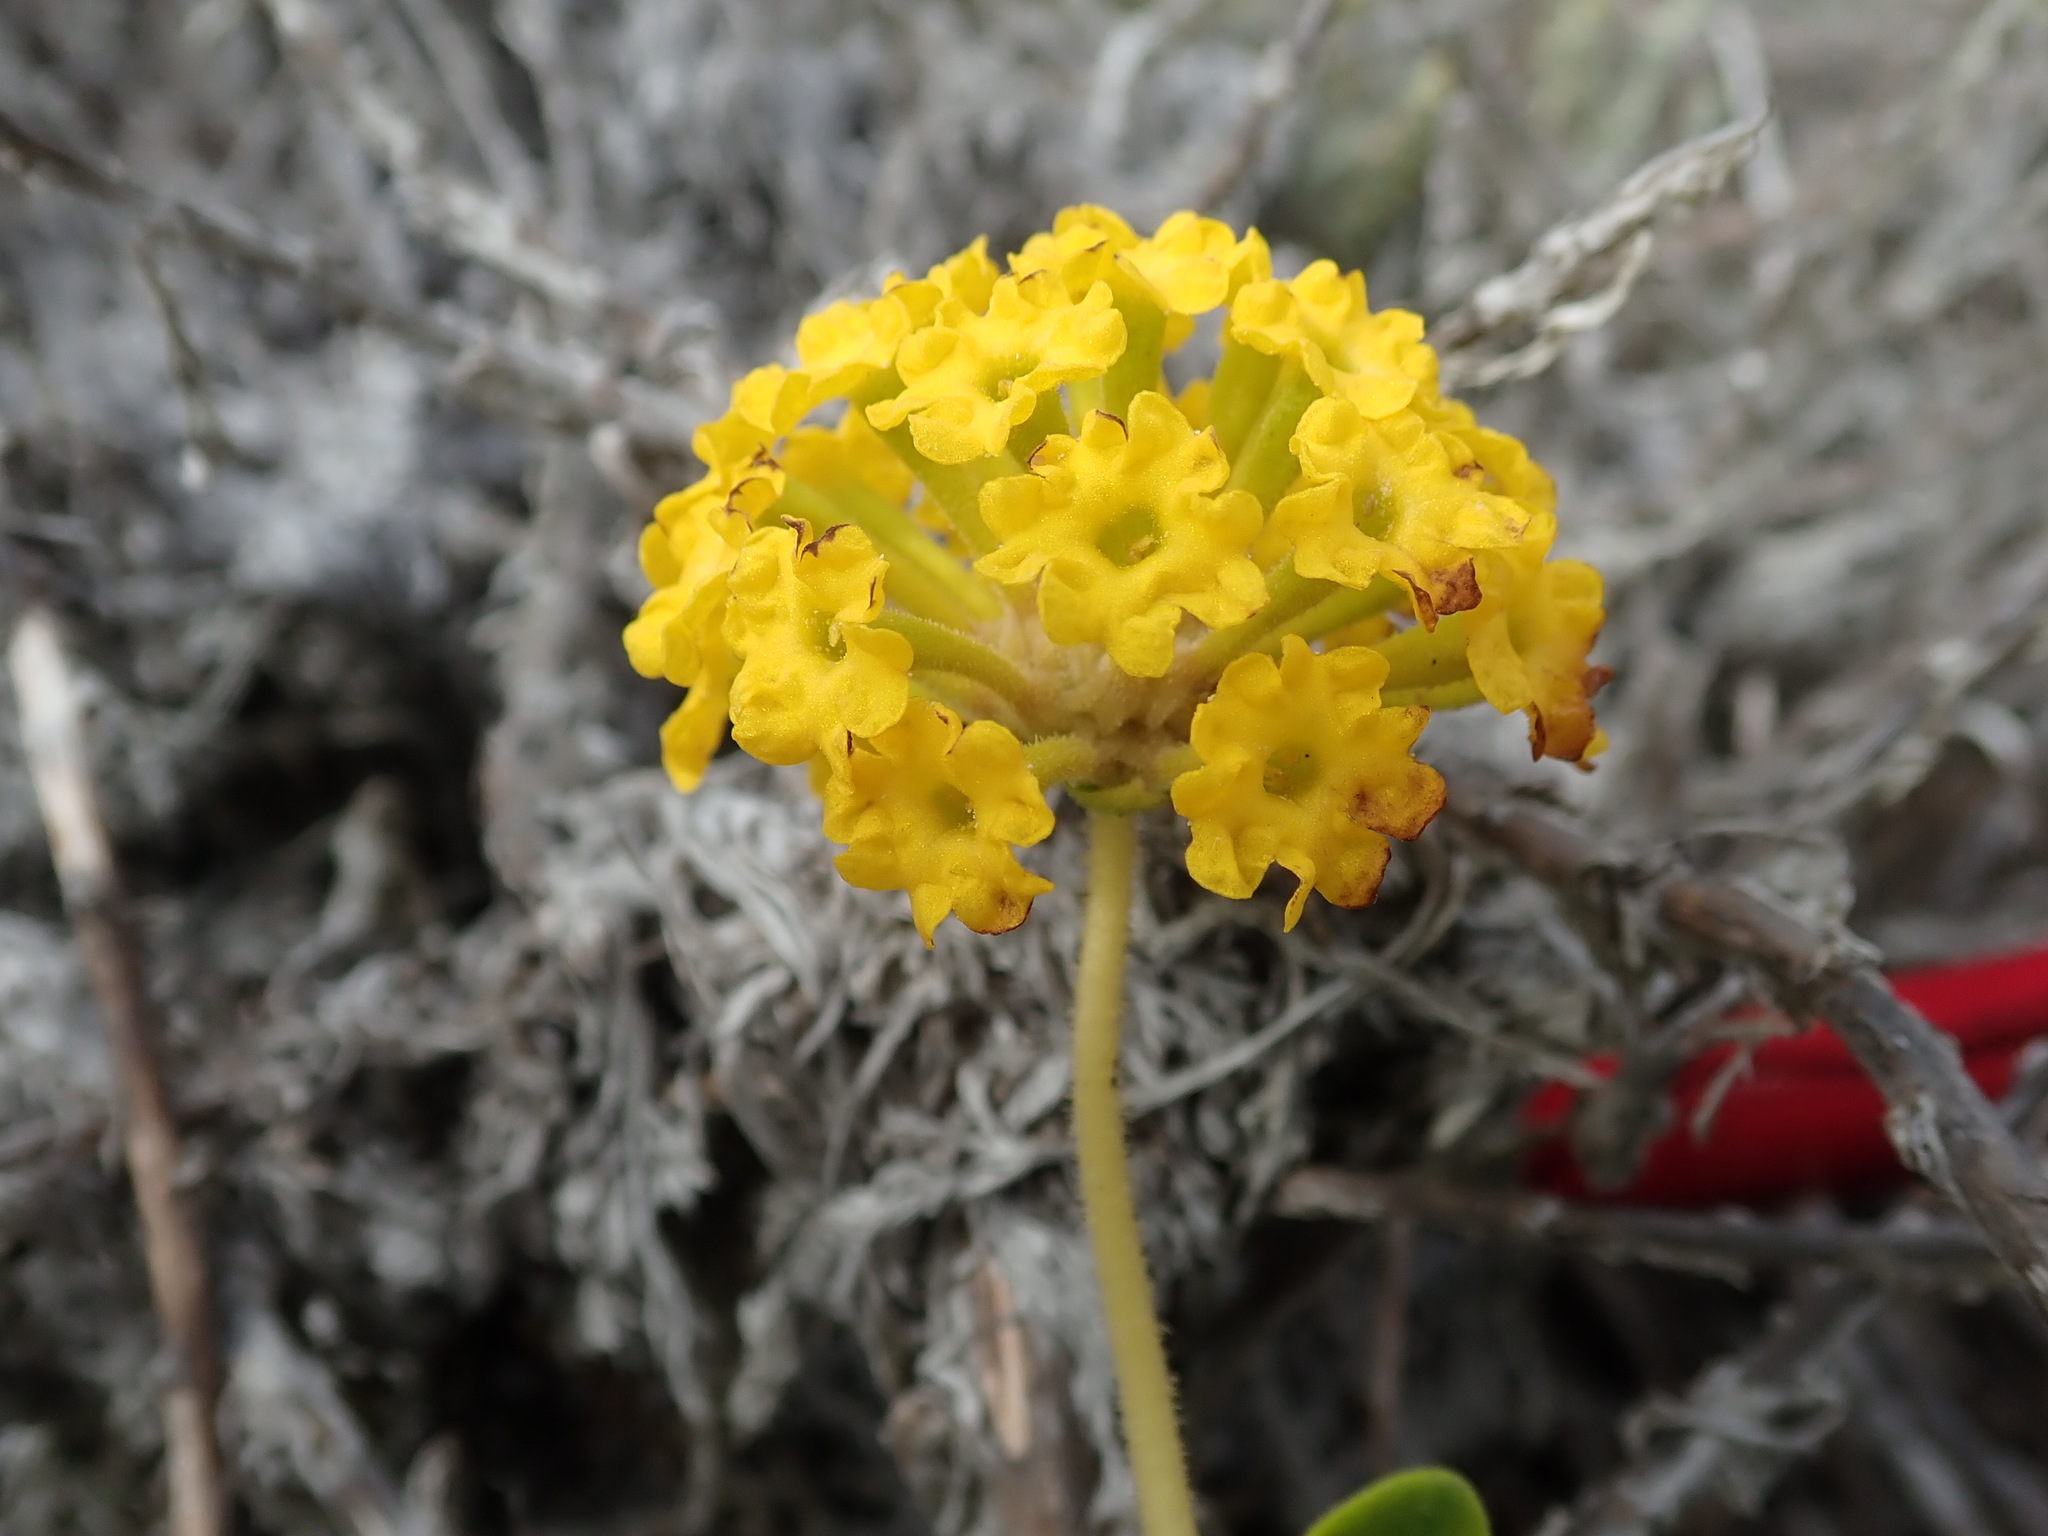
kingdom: Plantae
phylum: Tracheophyta
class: Magnoliopsida
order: Caryophyllales
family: Nyctaginaceae
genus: Abronia
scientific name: Abronia latifolia
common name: Yellow sand-verbena
